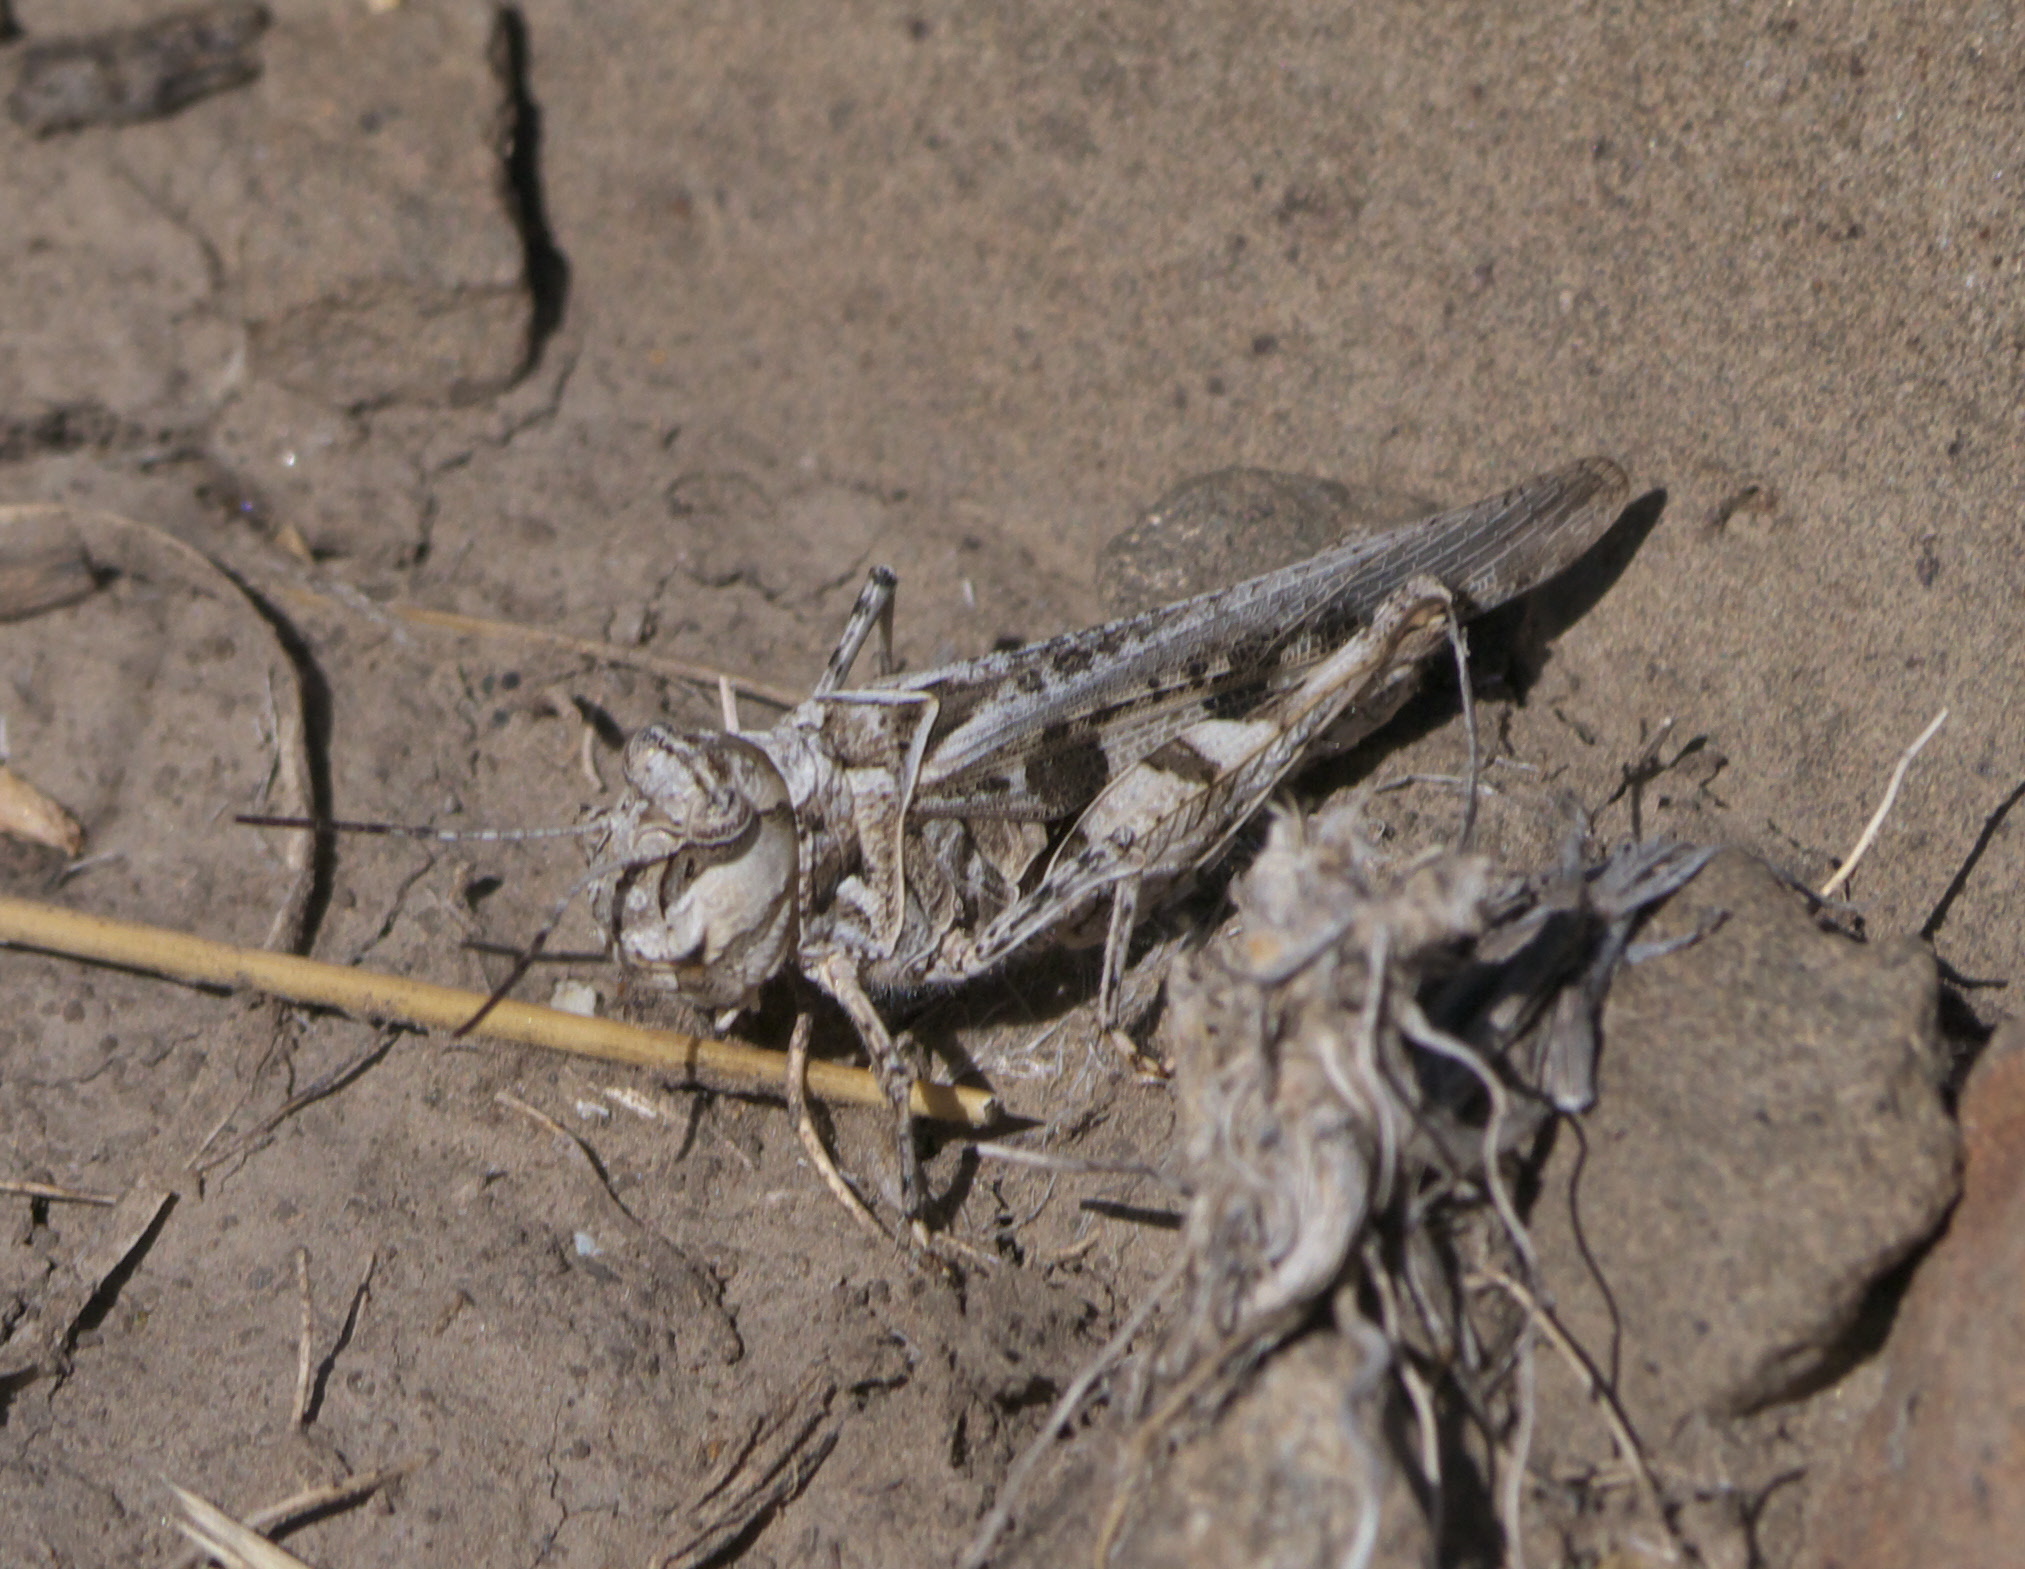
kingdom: Animalia
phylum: Arthropoda
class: Insecta
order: Orthoptera
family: Acrididae
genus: Trachyrhachys
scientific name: Trachyrhachys aspera
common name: Finned grasshopper
